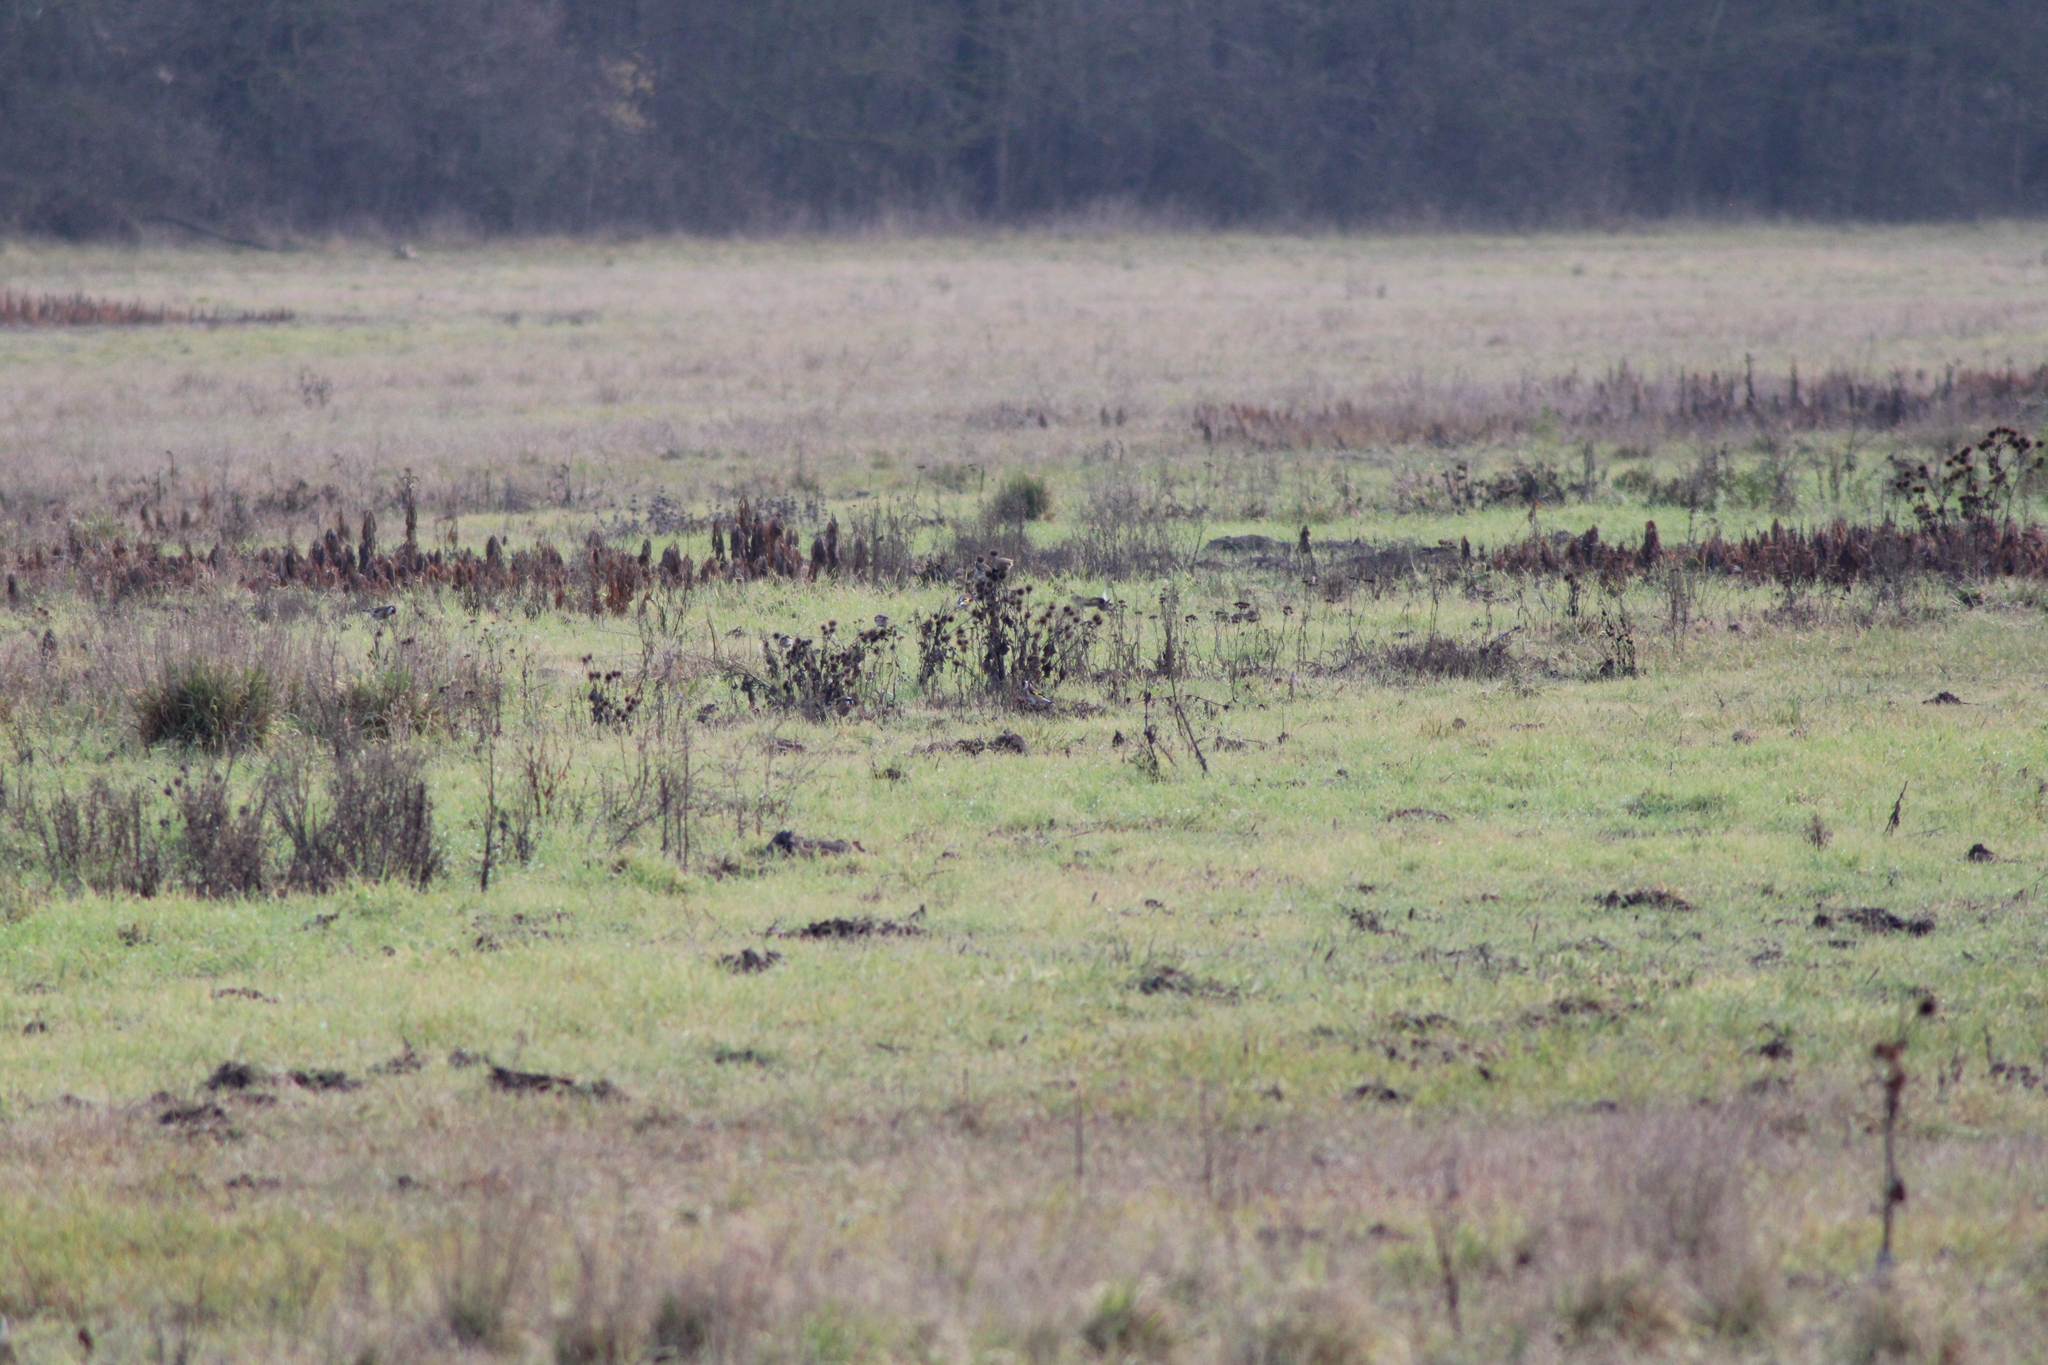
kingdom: Animalia
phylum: Chordata
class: Aves
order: Passeriformes
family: Fringillidae
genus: Carduelis
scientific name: Carduelis carduelis
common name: European goldfinch
